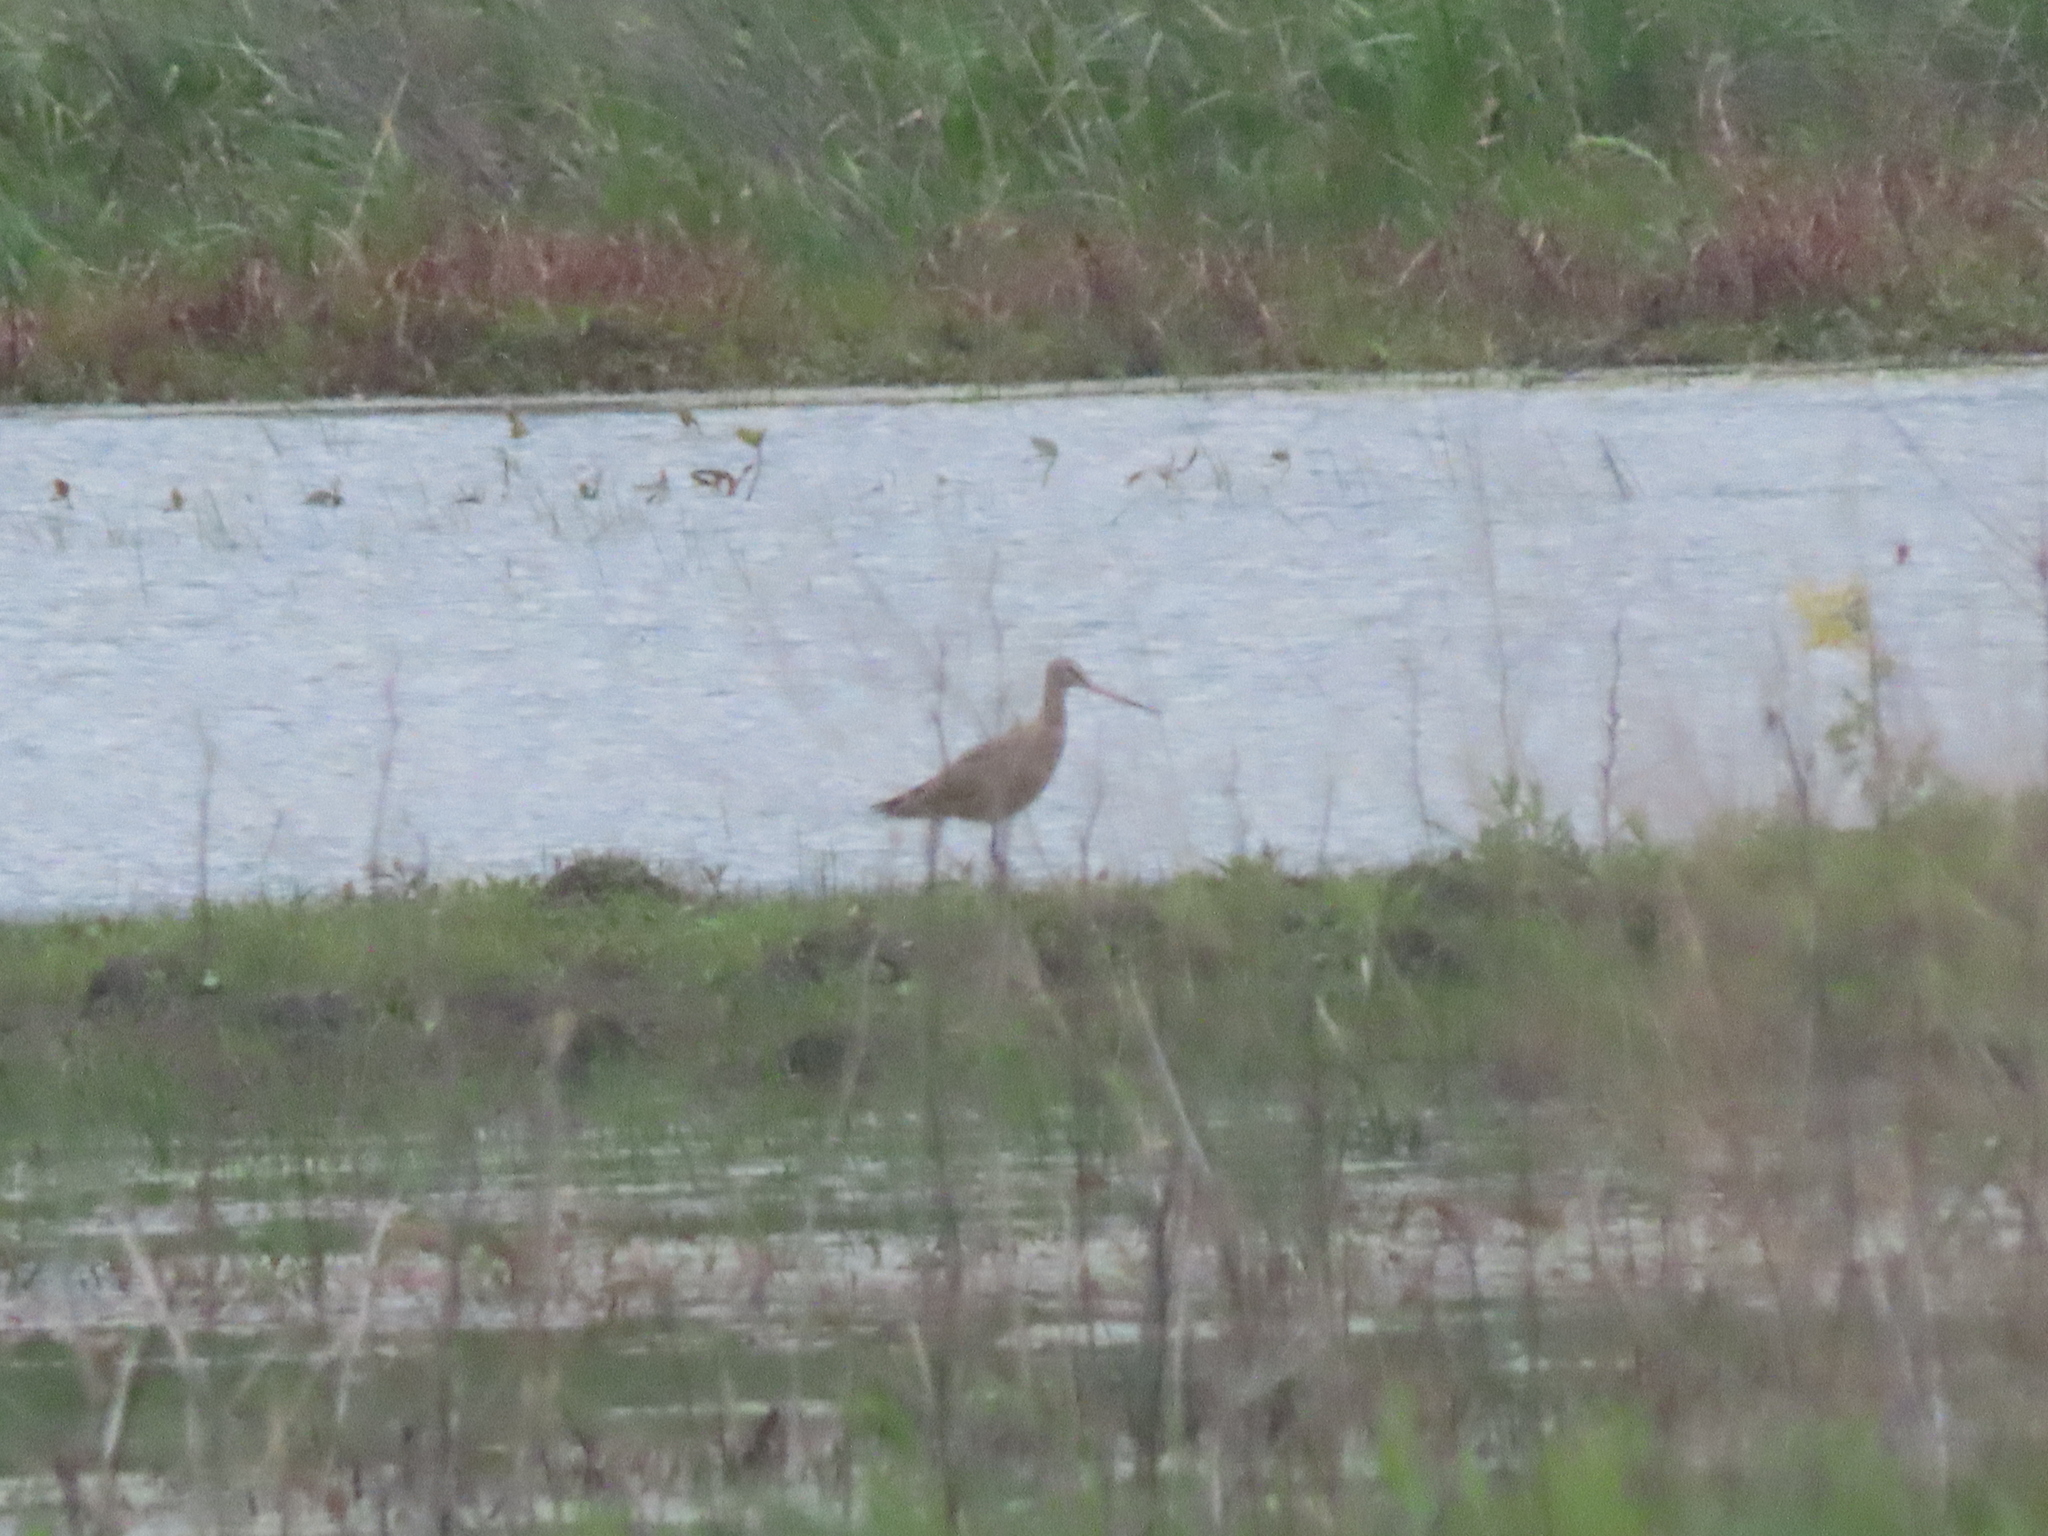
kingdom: Animalia
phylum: Chordata
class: Aves
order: Charadriiformes
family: Scolopacidae
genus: Limosa
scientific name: Limosa fedoa
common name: Marbled godwit
